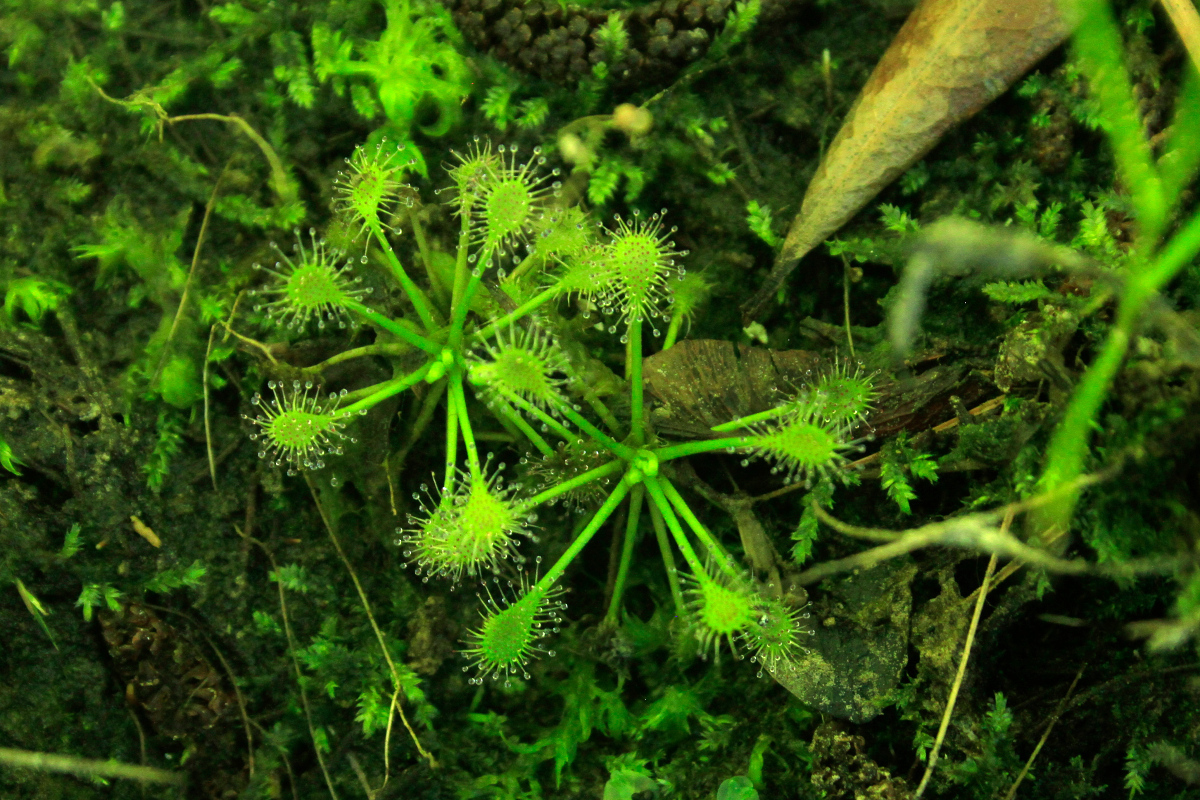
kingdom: Plantae
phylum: Tracheophyta
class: Magnoliopsida
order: Caryophyllales
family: Droseraceae
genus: Drosera
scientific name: Drosera intermedia
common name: Oblong-leaved sundew
